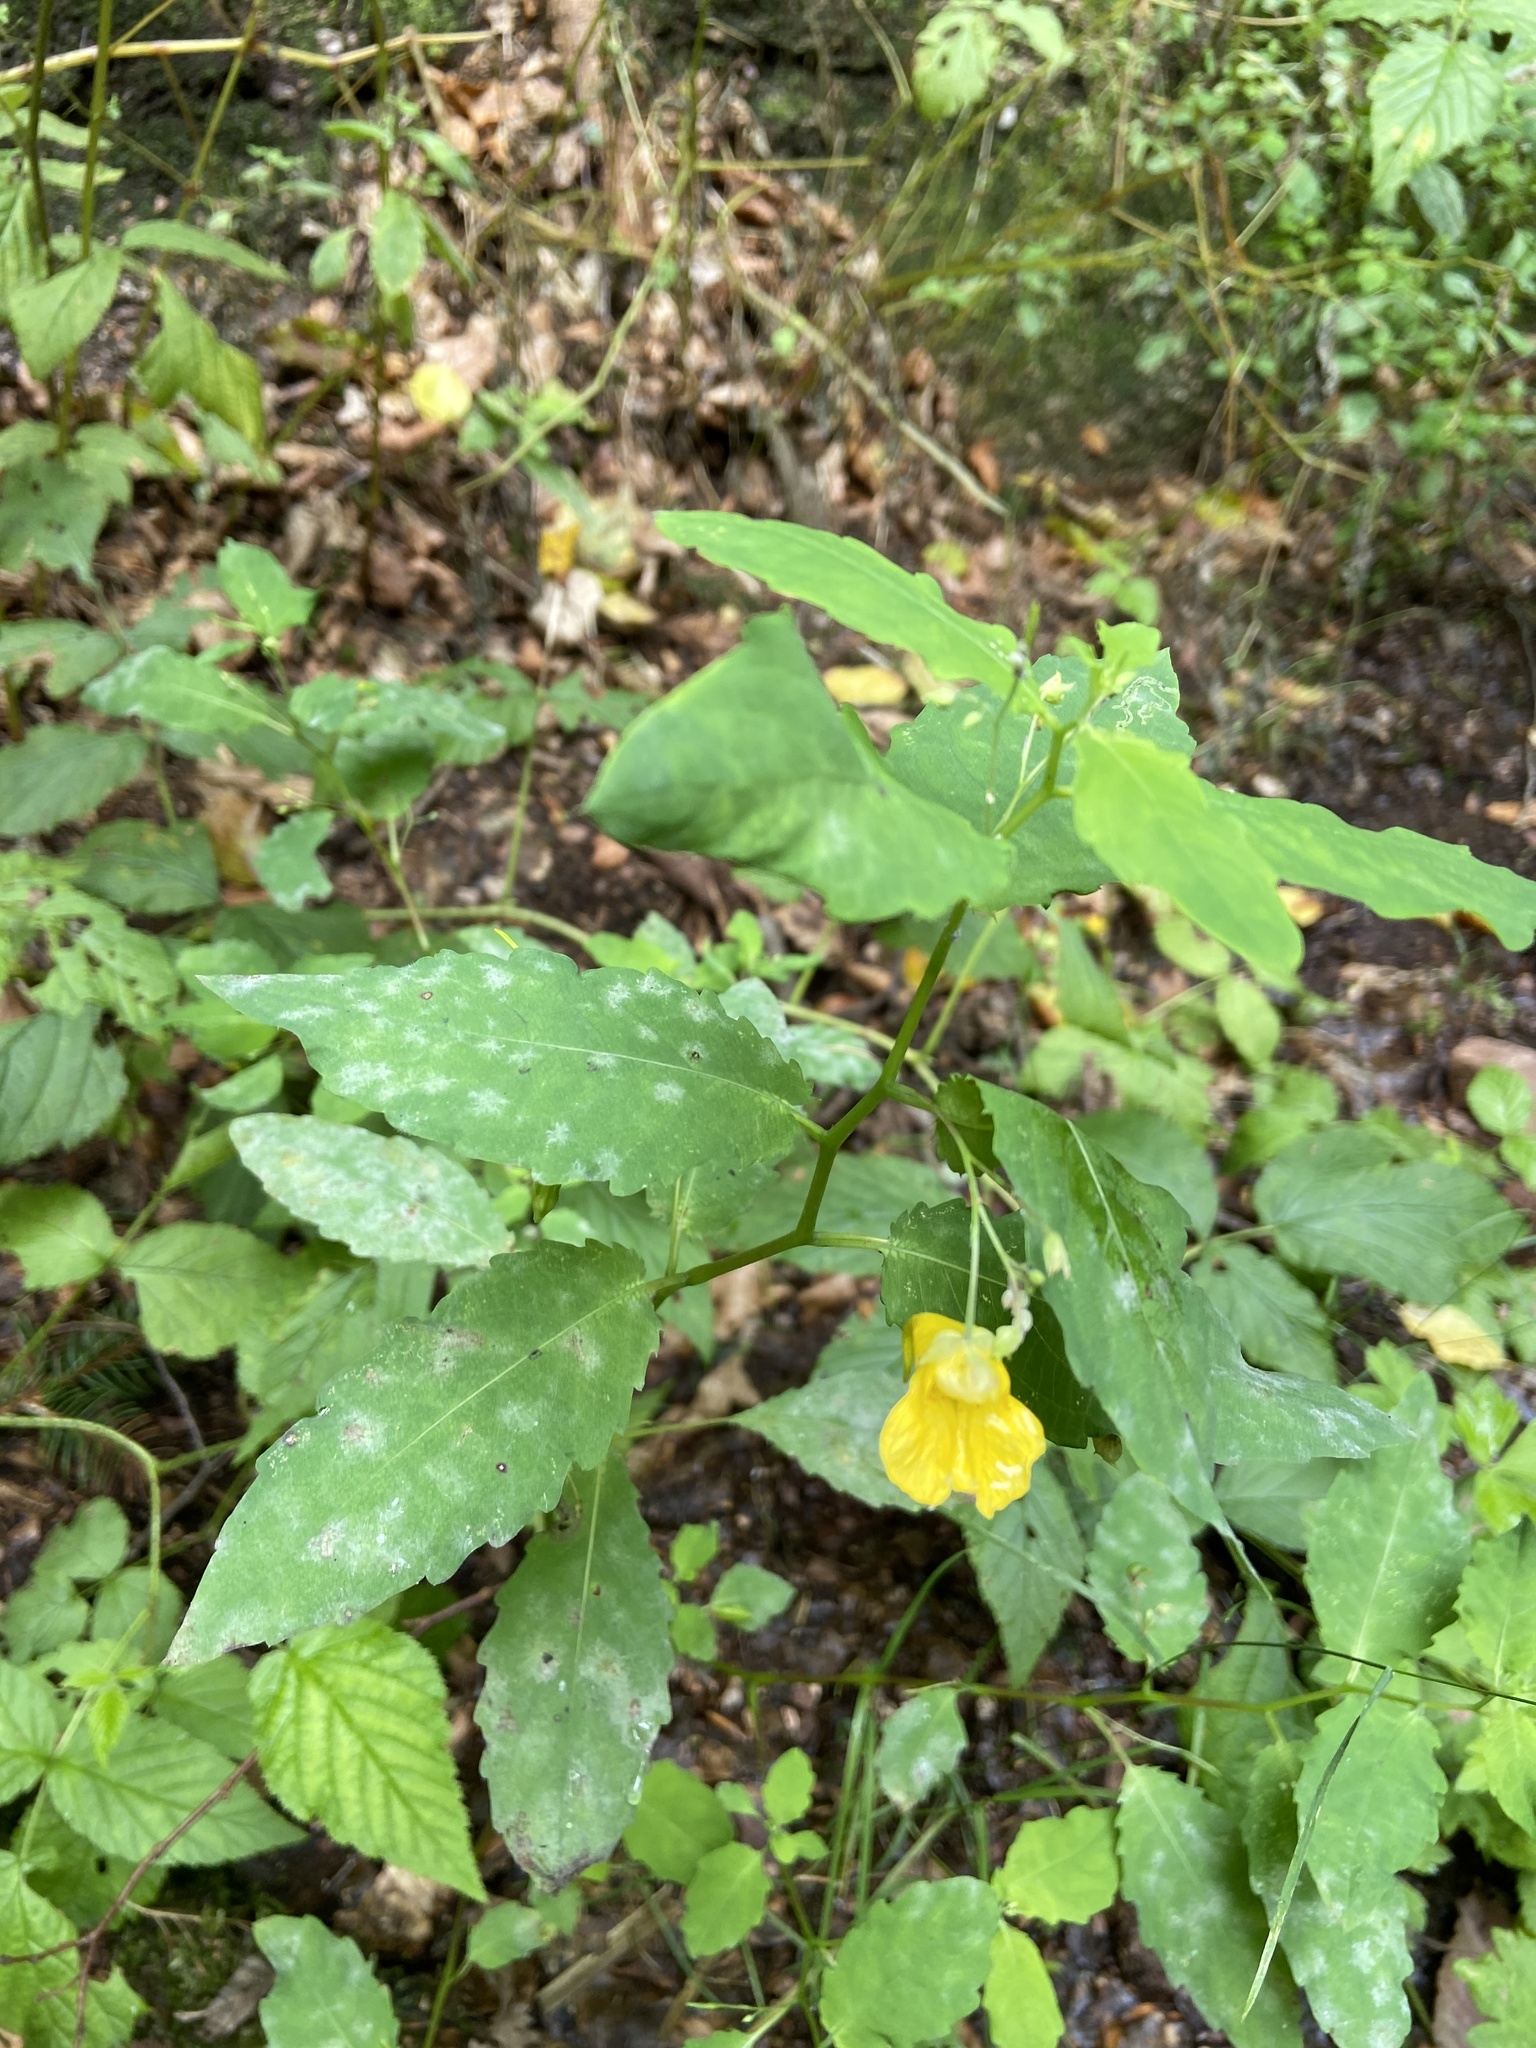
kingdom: Plantae
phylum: Tracheophyta
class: Magnoliopsida
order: Ericales
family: Balsaminaceae
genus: Impatiens
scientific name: Impatiens noli-tangere
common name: Touch-me-not balsam
